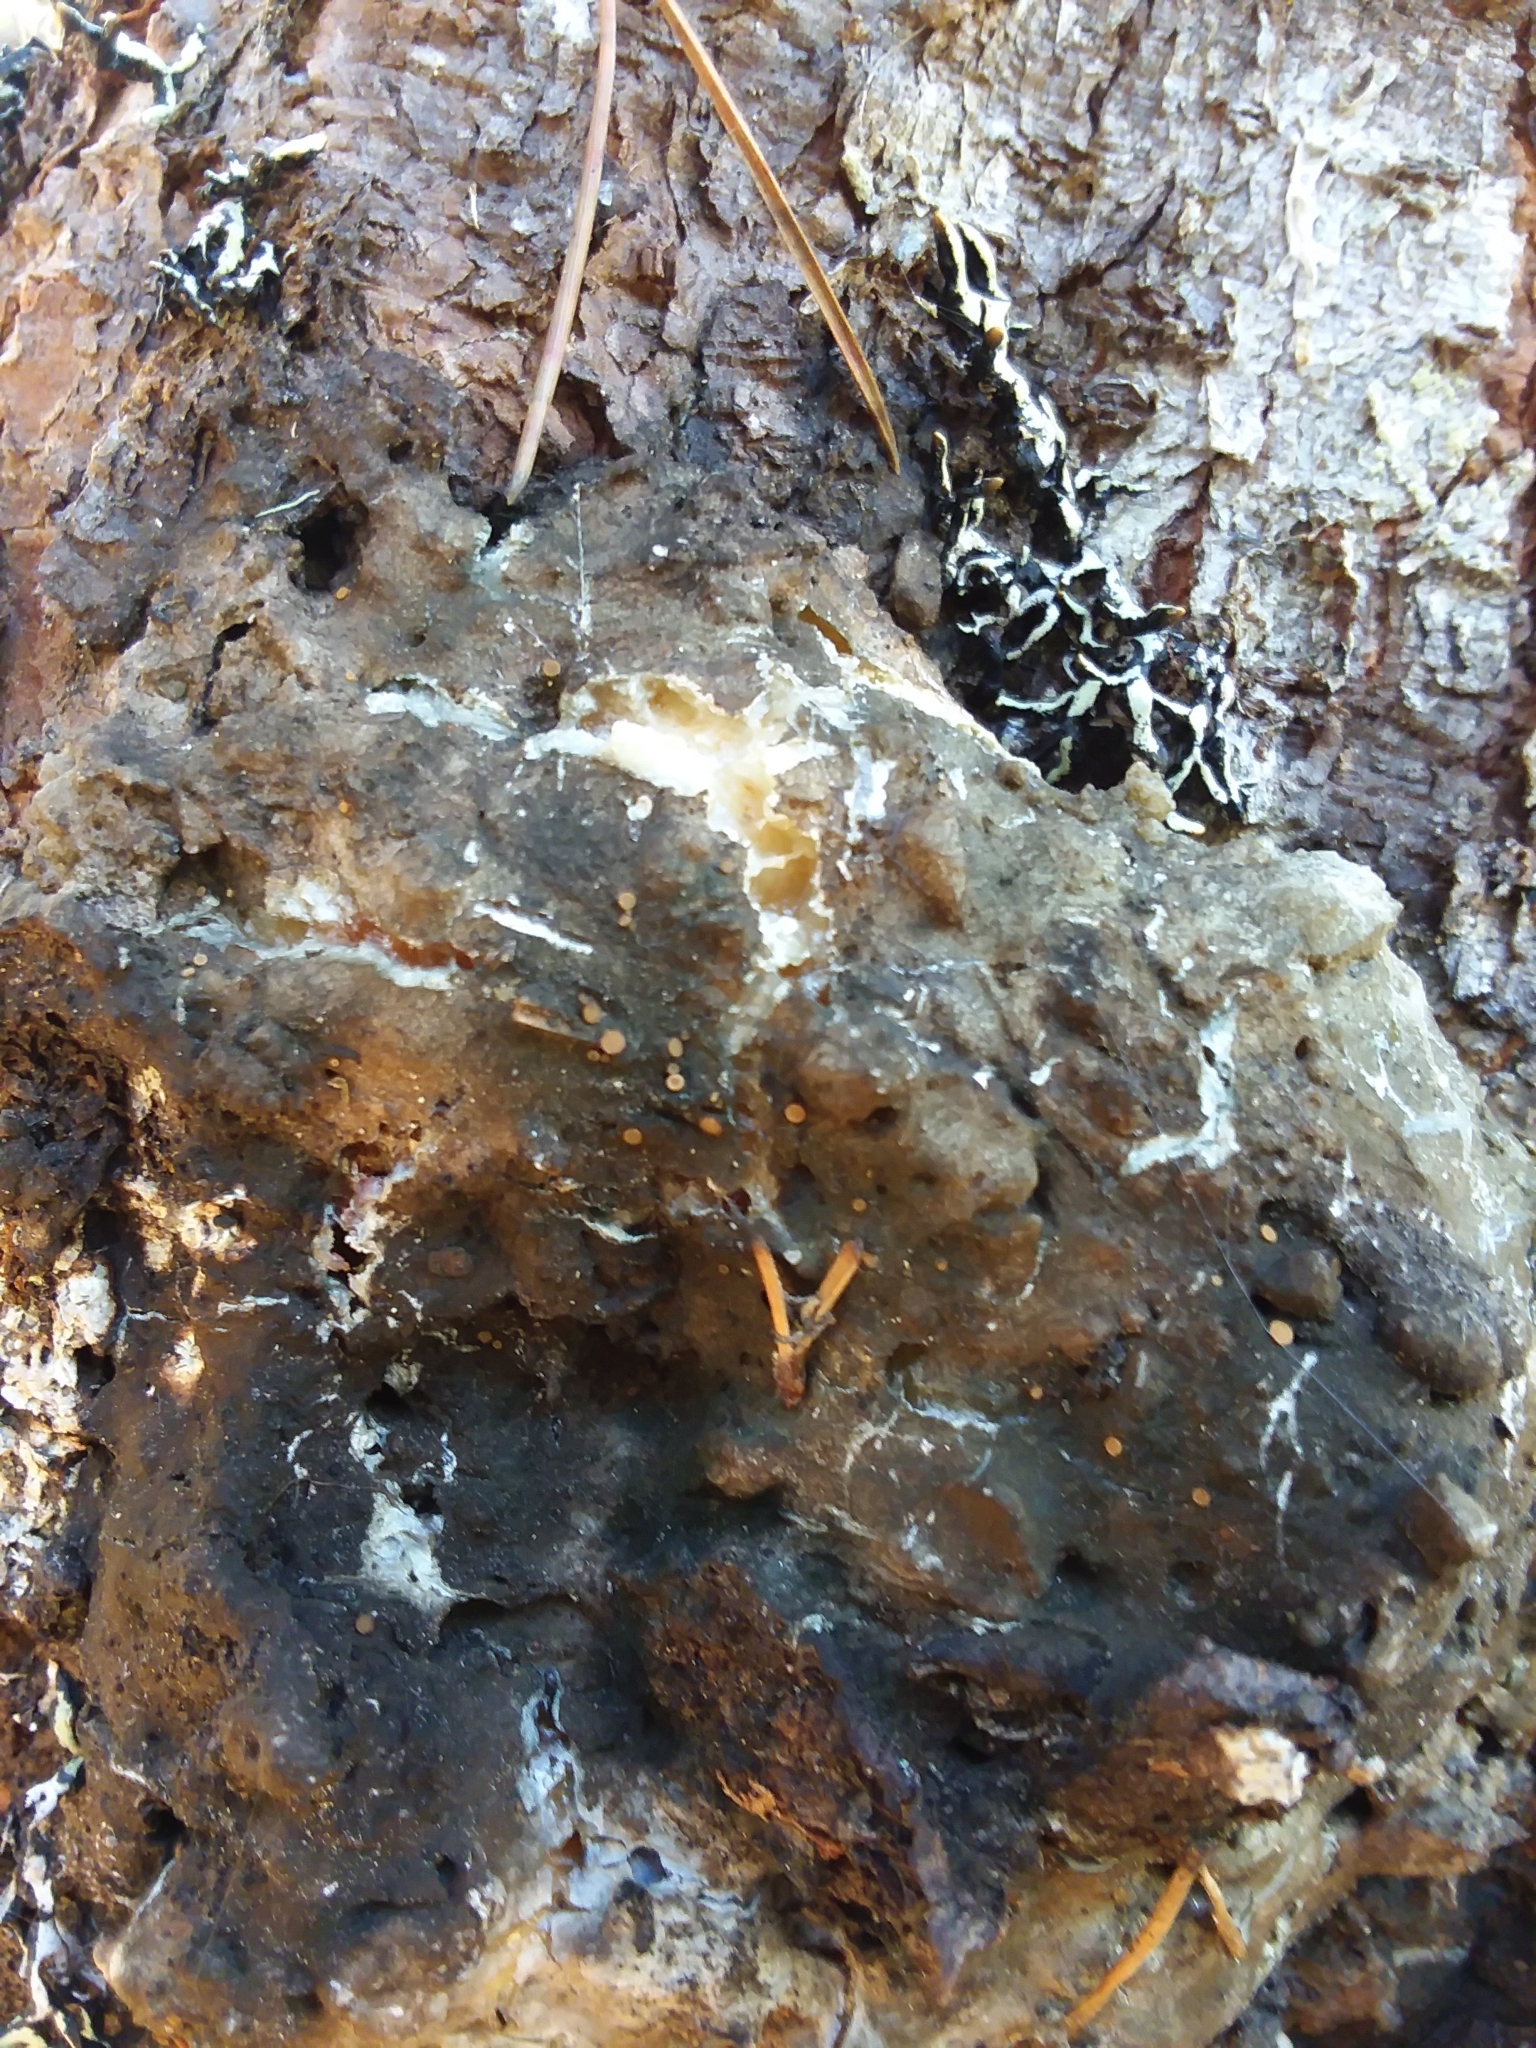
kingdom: Fungi
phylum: Ascomycota
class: Sareomycetes
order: Sareales
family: Sareaceae
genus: Sarea
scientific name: Sarea resinae
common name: Sarea lichen
